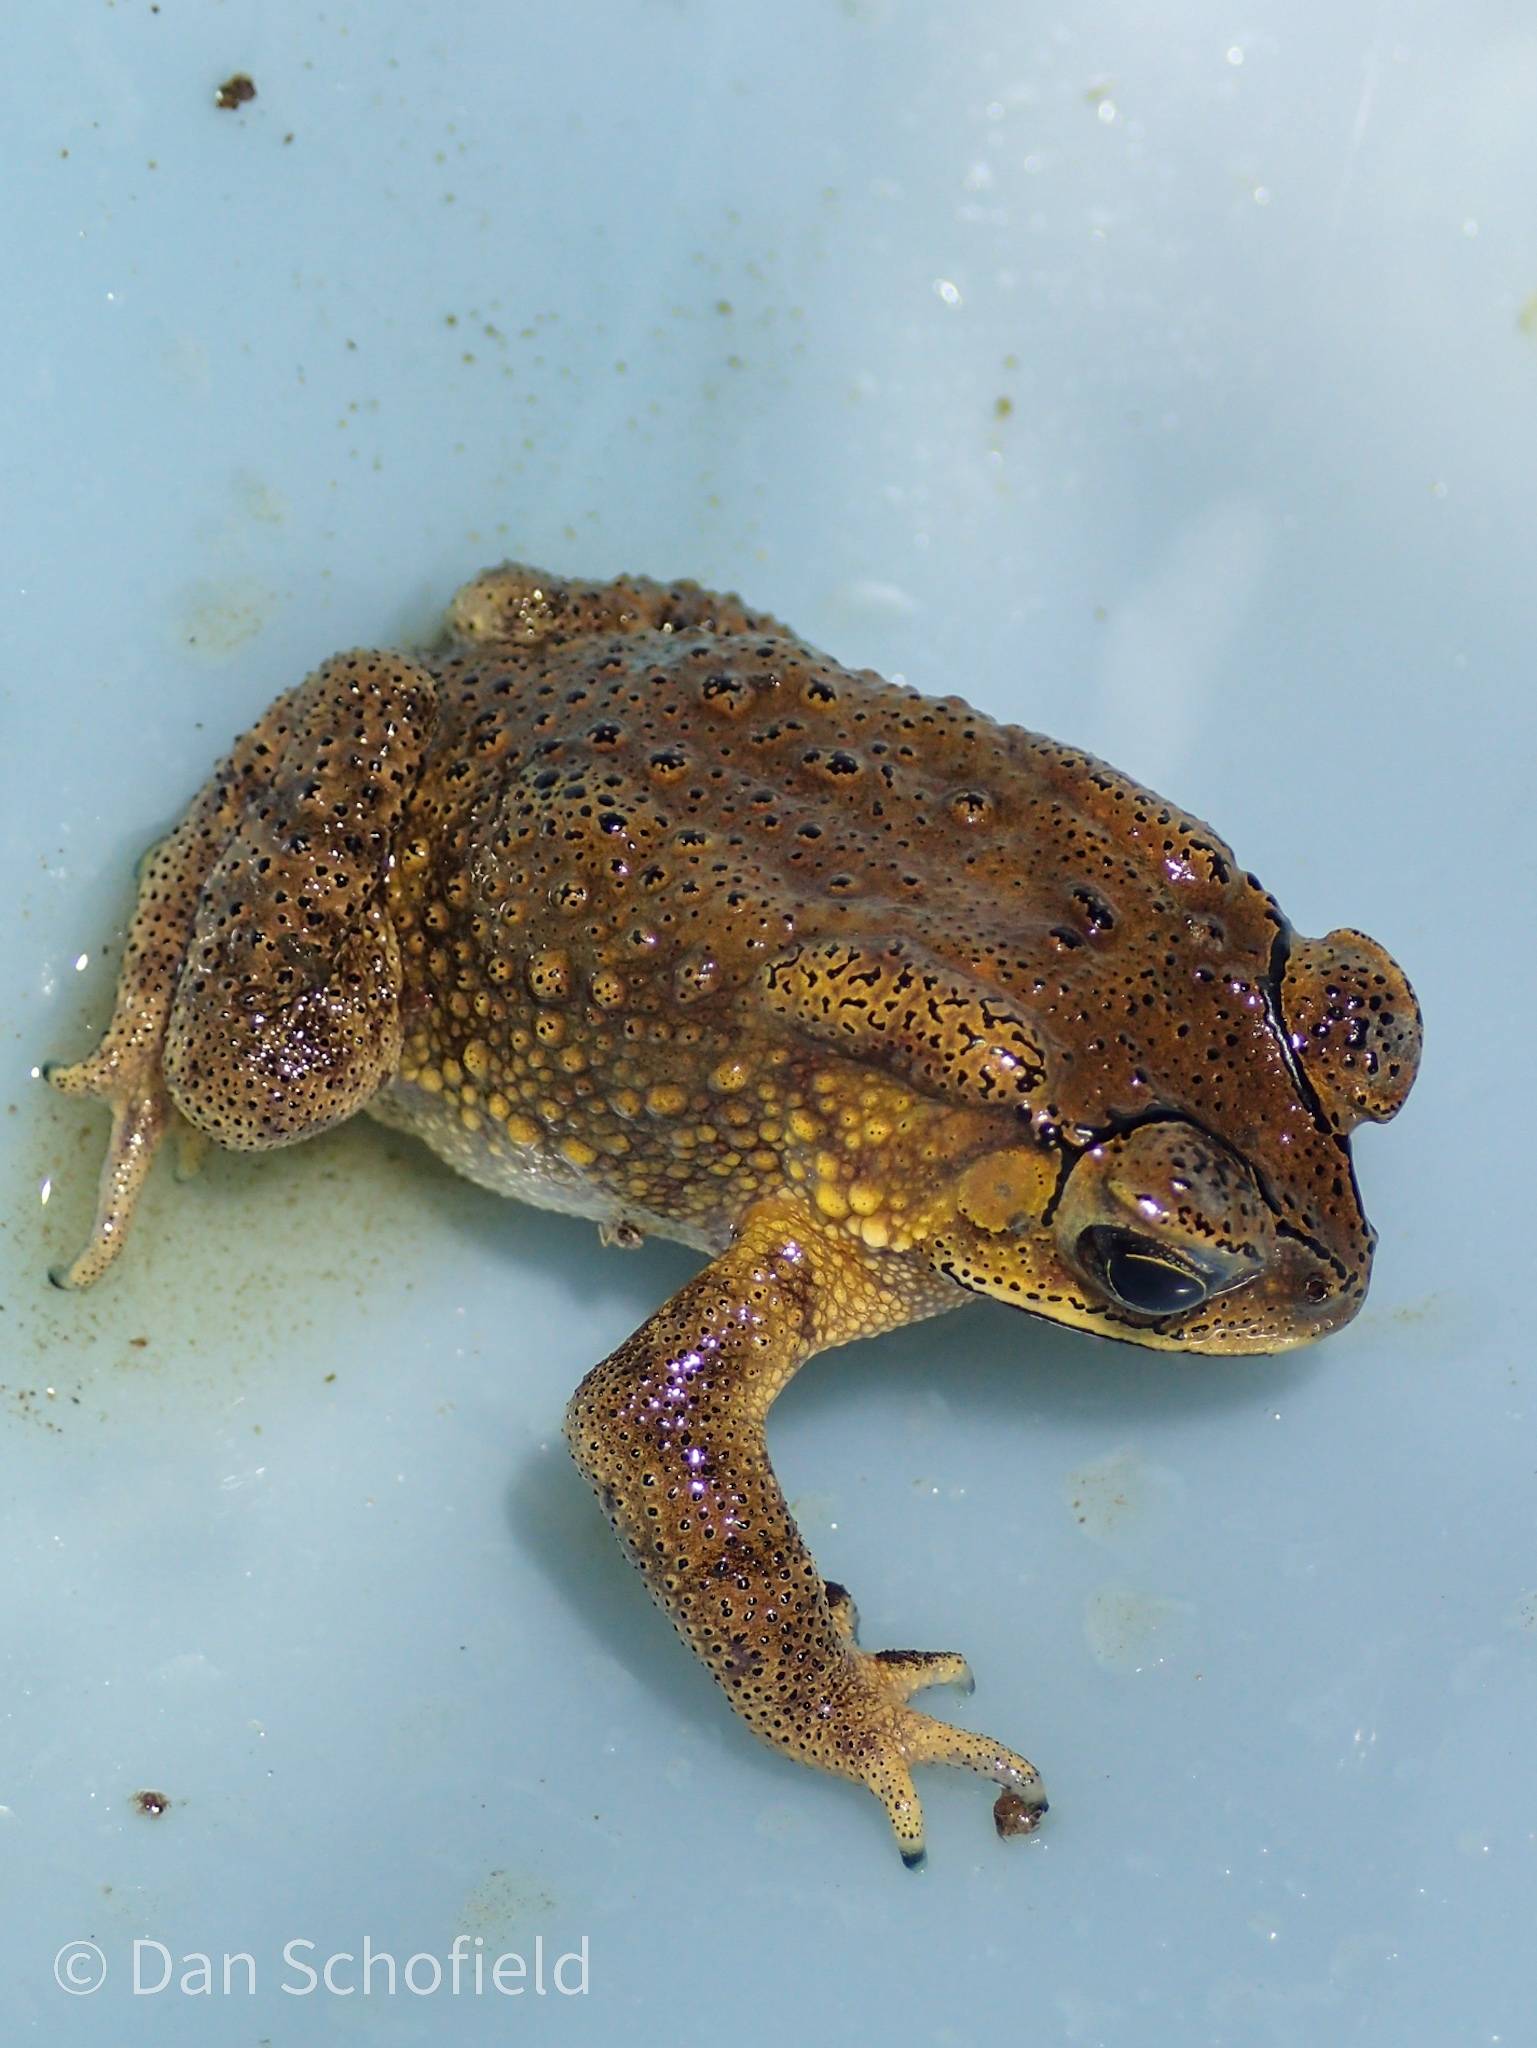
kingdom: Animalia
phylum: Chordata
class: Amphibia
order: Anura
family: Bufonidae
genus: Duttaphrynus
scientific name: Duttaphrynus melanostictus
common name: Common sunda toad
